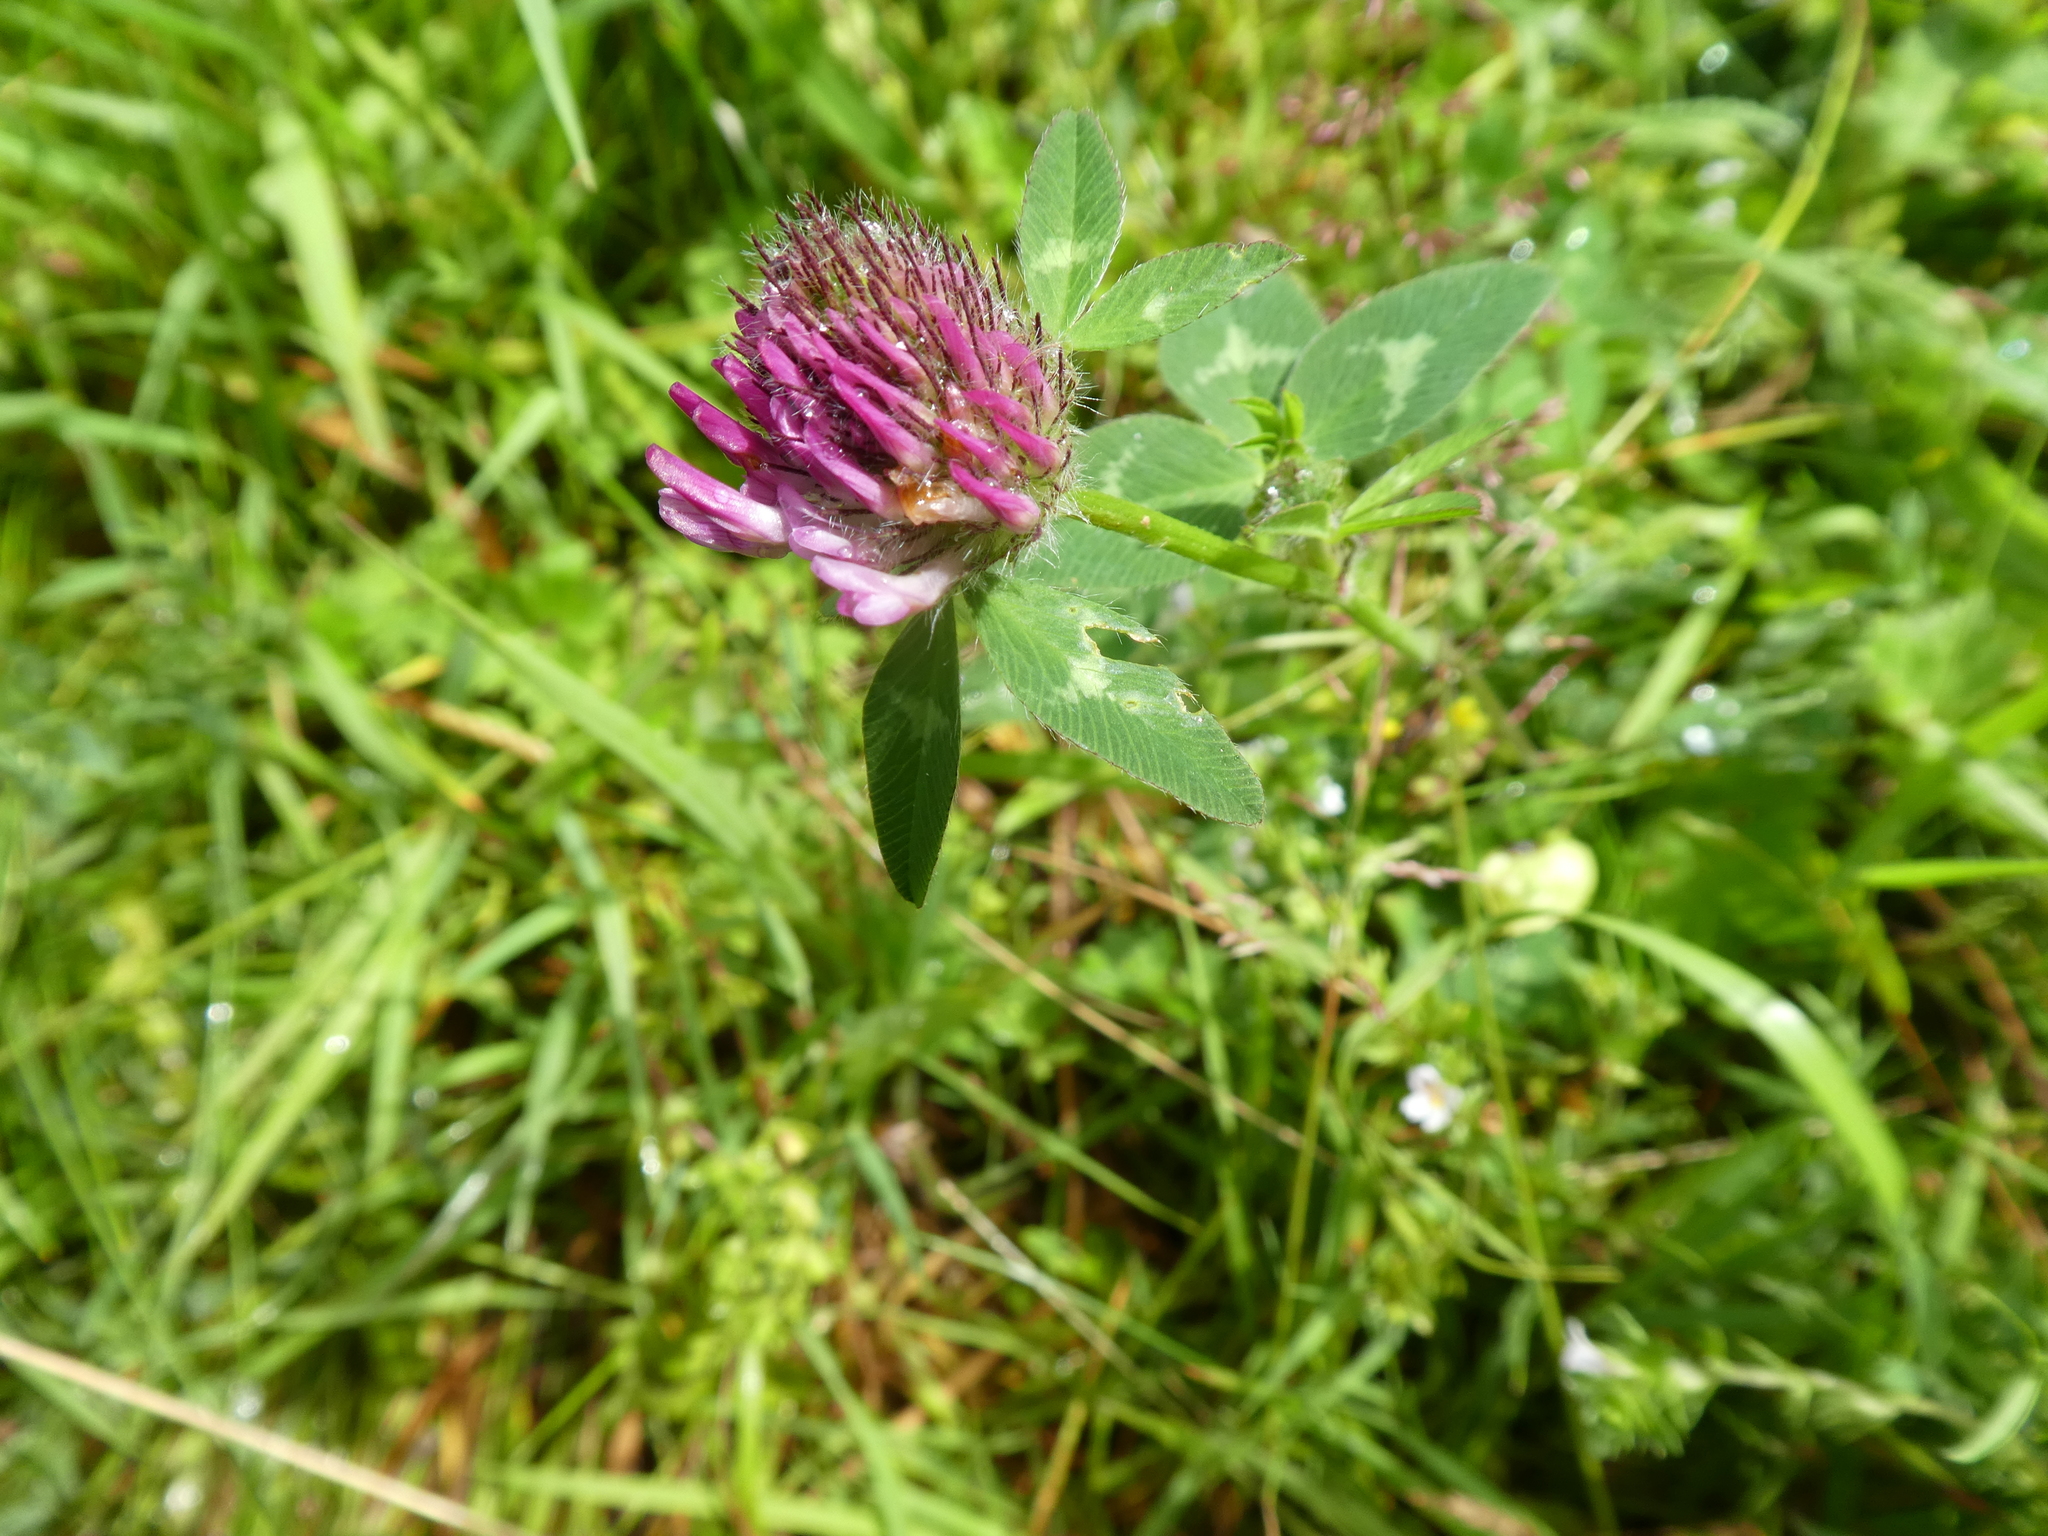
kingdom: Plantae
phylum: Tracheophyta
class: Magnoliopsida
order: Fabales
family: Fabaceae
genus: Trifolium
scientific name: Trifolium pratense
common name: Red clover
